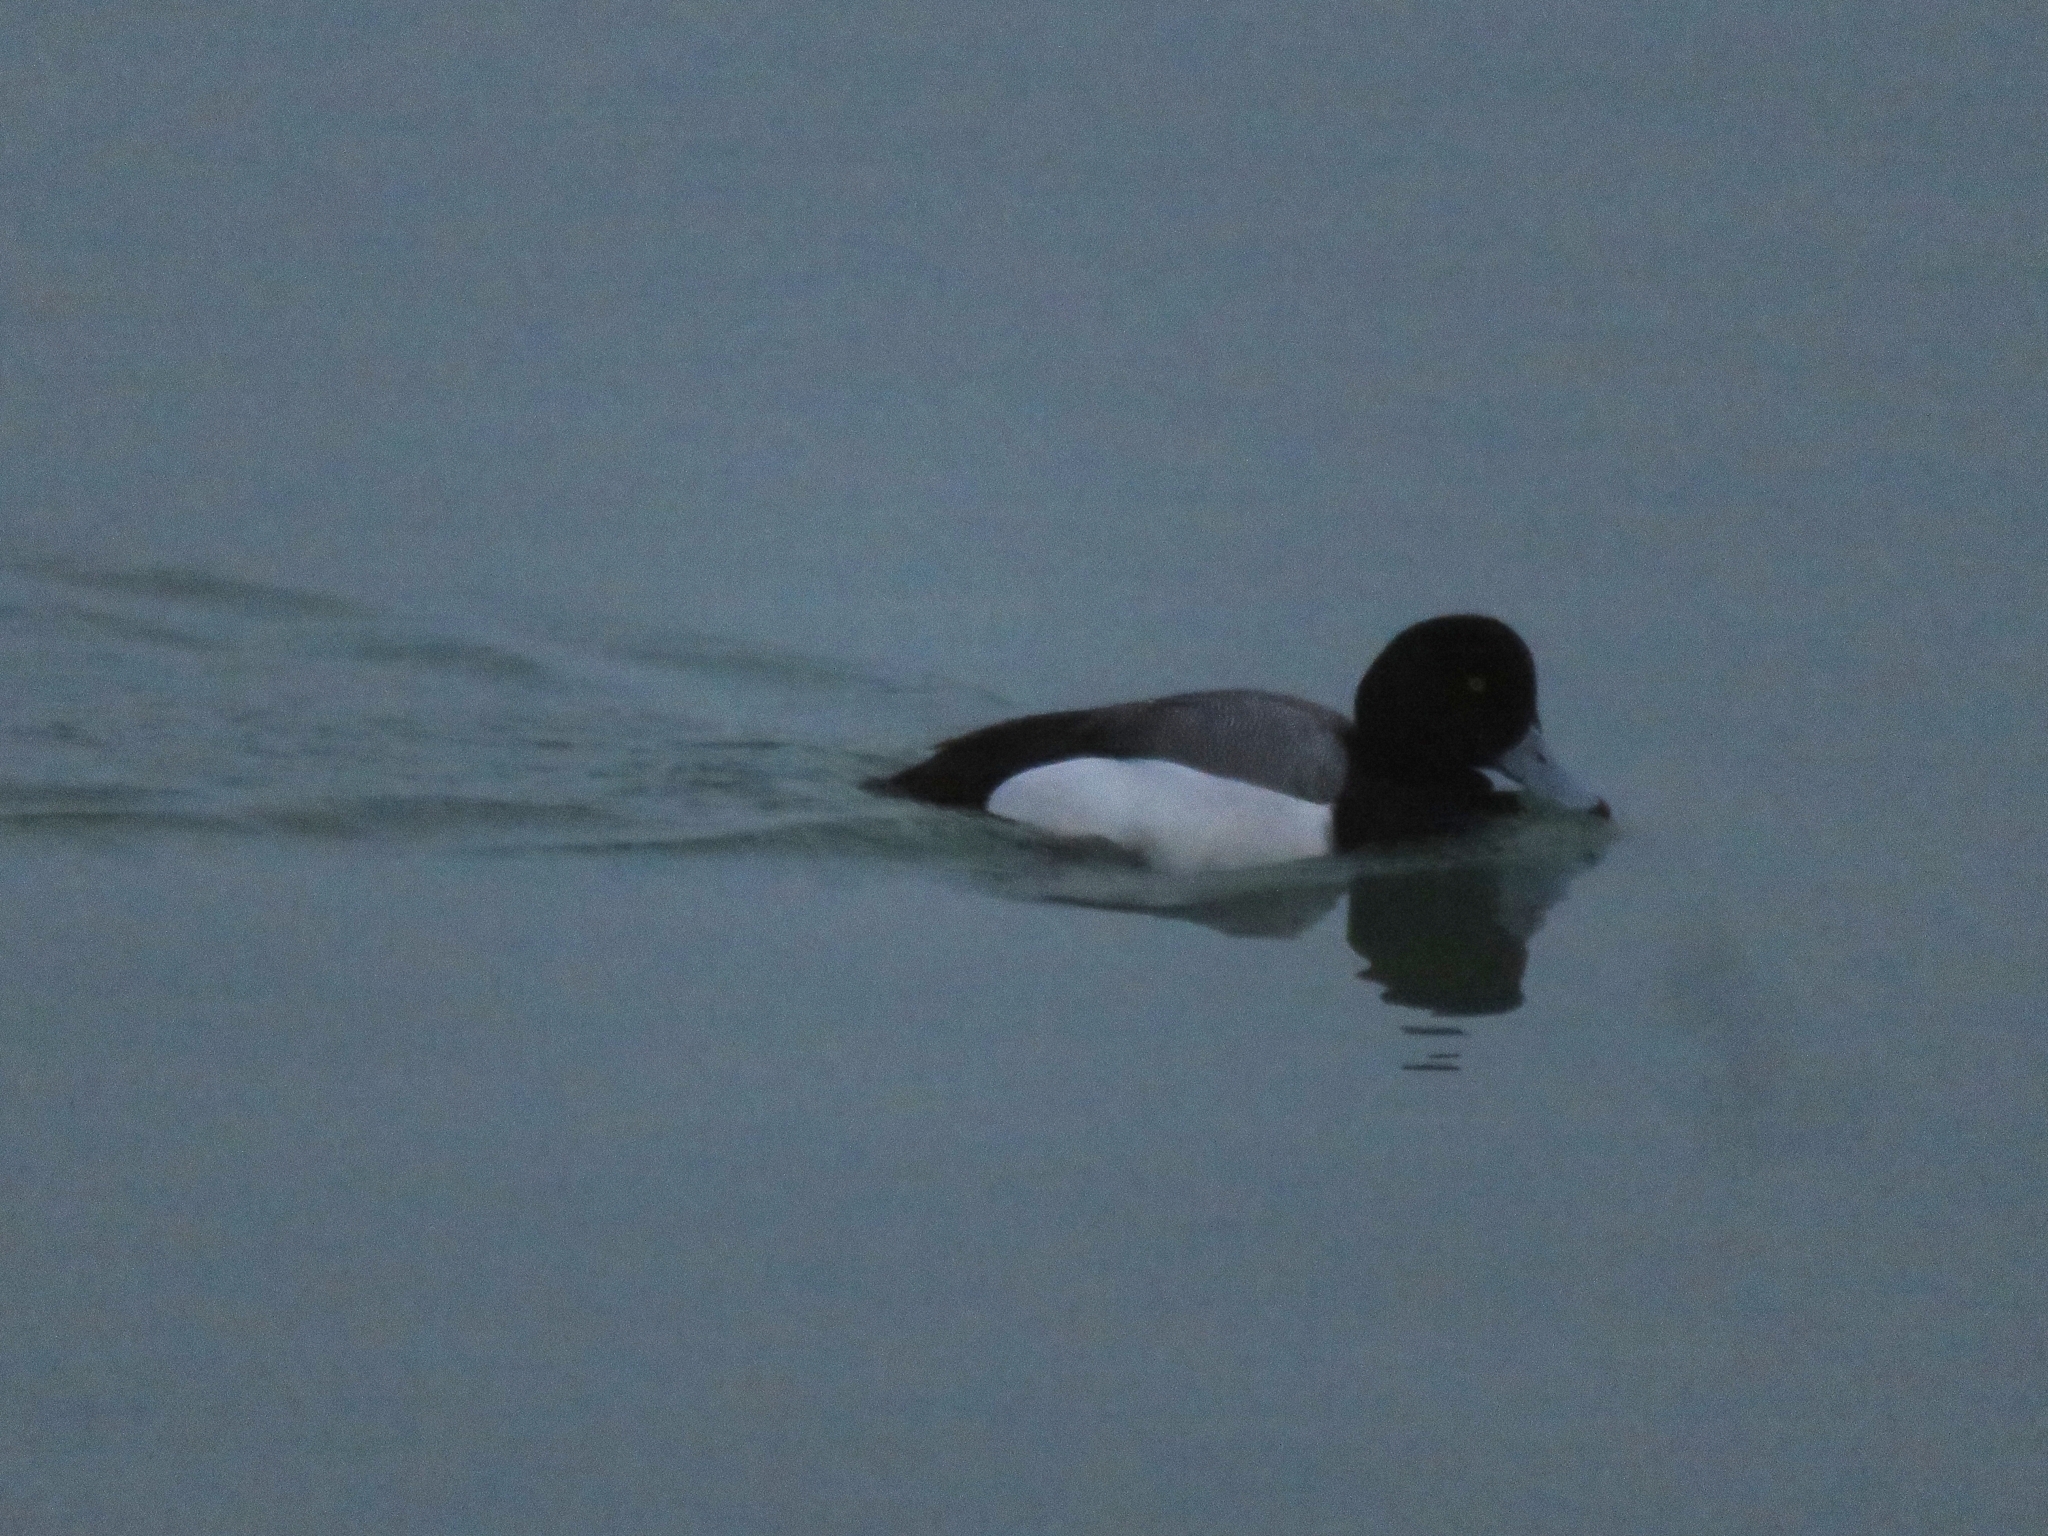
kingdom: Animalia
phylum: Chordata
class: Aves
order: Anseriformes
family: Anatidae
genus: Aythya
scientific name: Aythya marila
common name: Greater scaup
